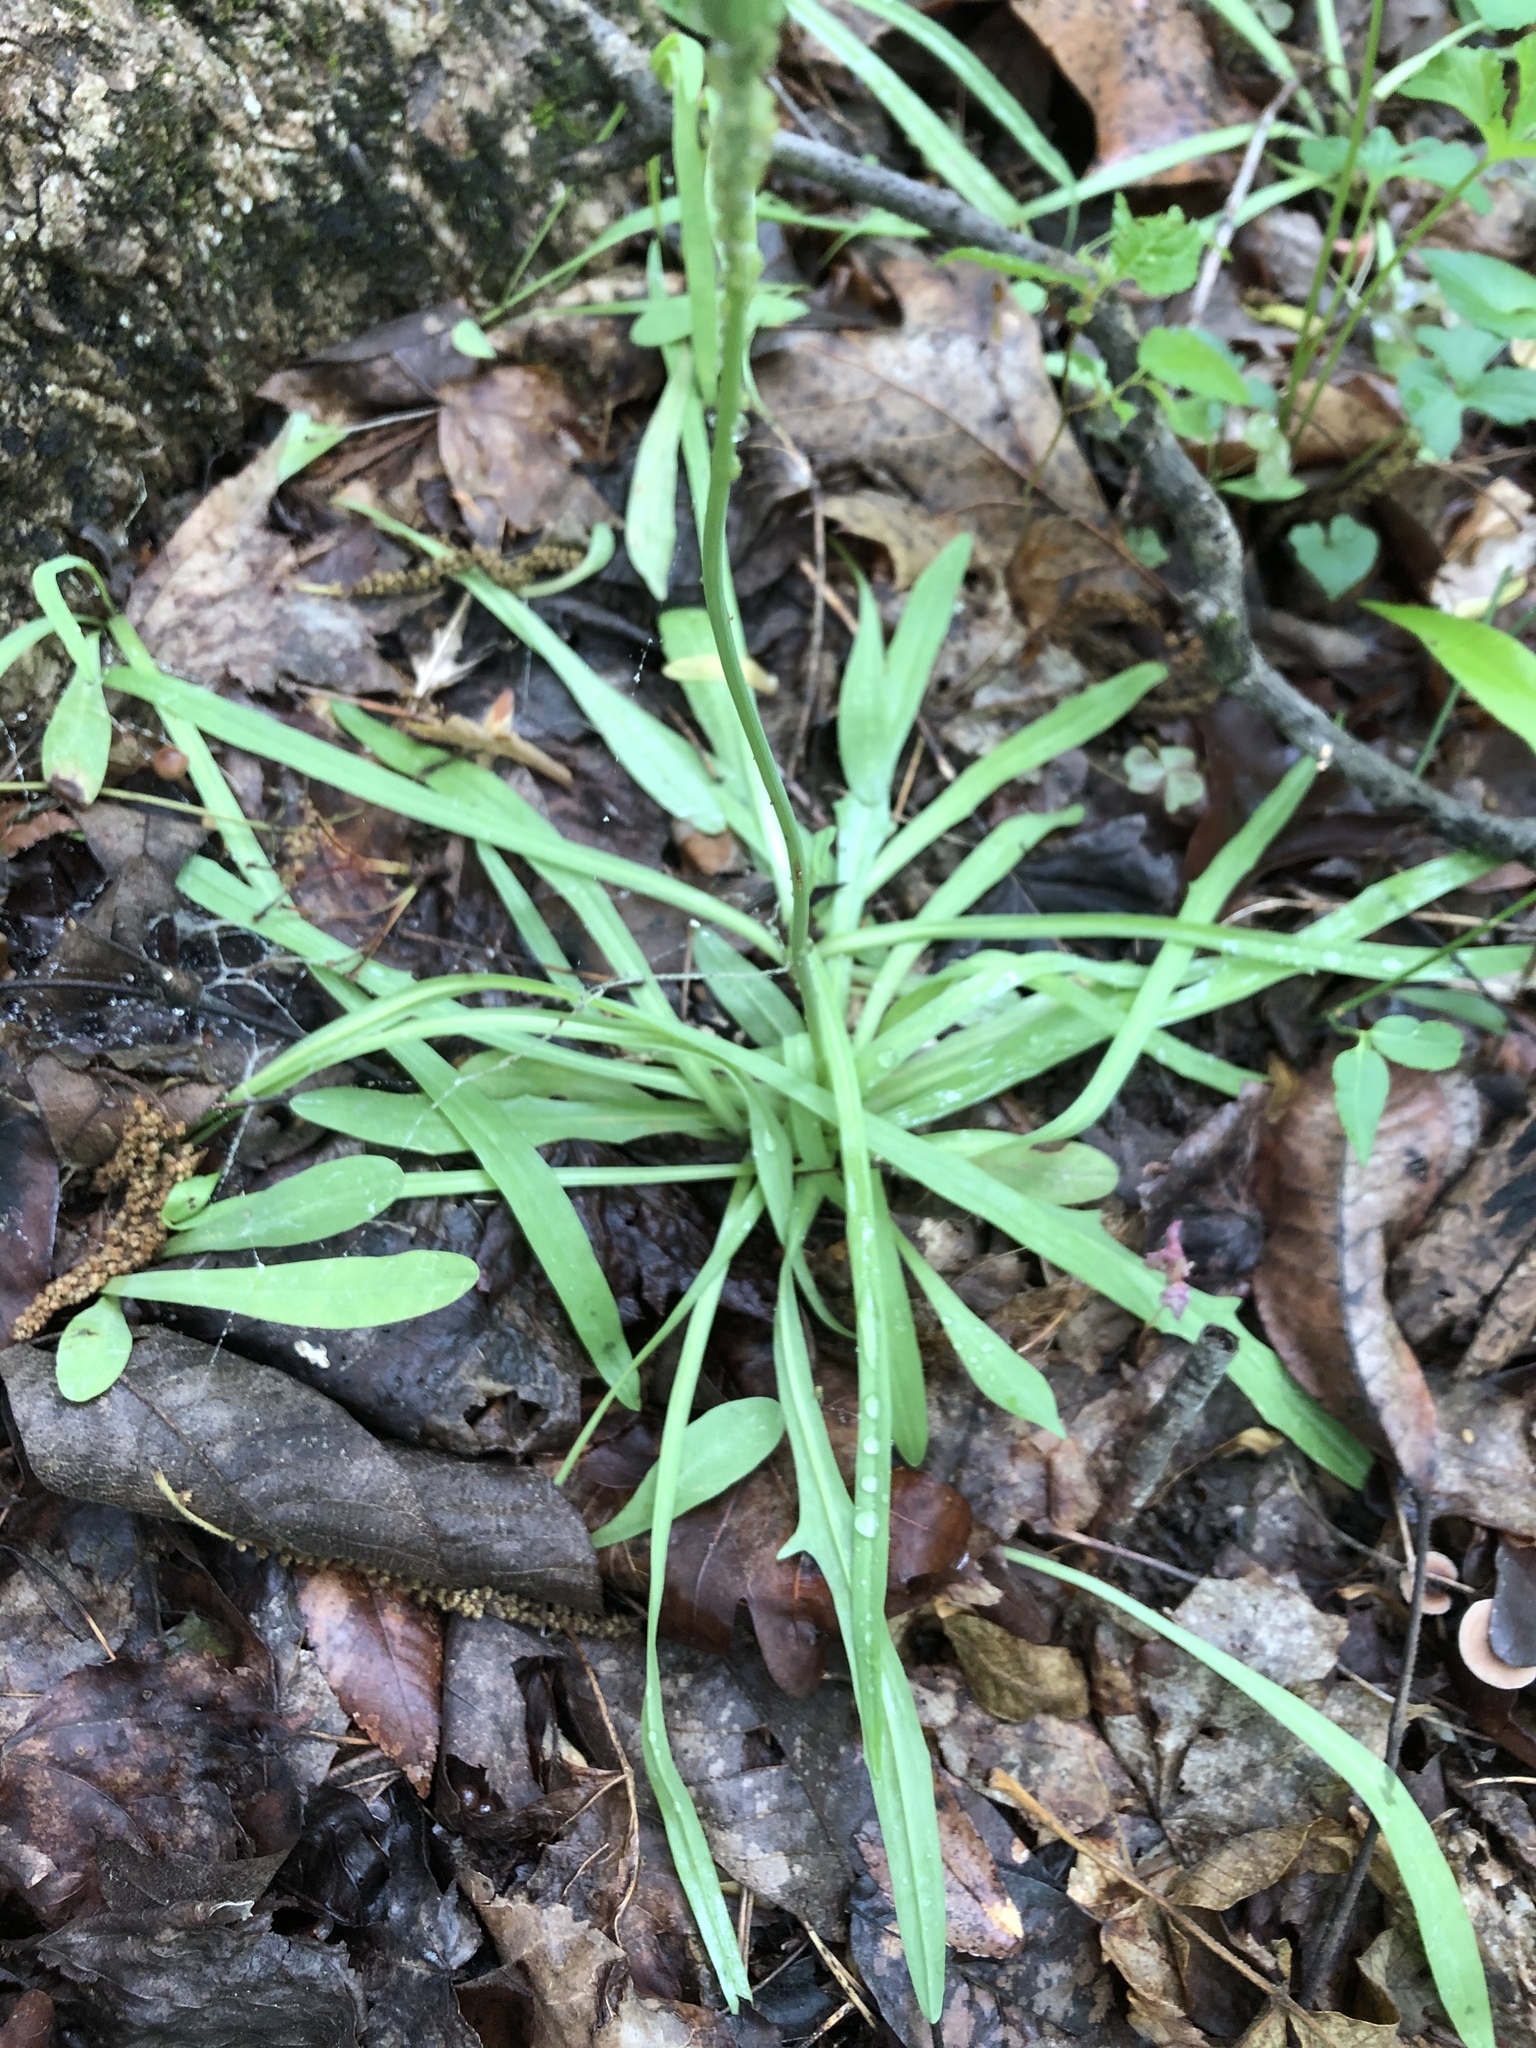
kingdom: Plantae
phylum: Tracheophyta
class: Magnoliopsida
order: Asterales
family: Asteraceae
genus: Krigia
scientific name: Krigia dandelion
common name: Colonial dwarf-dandelion
